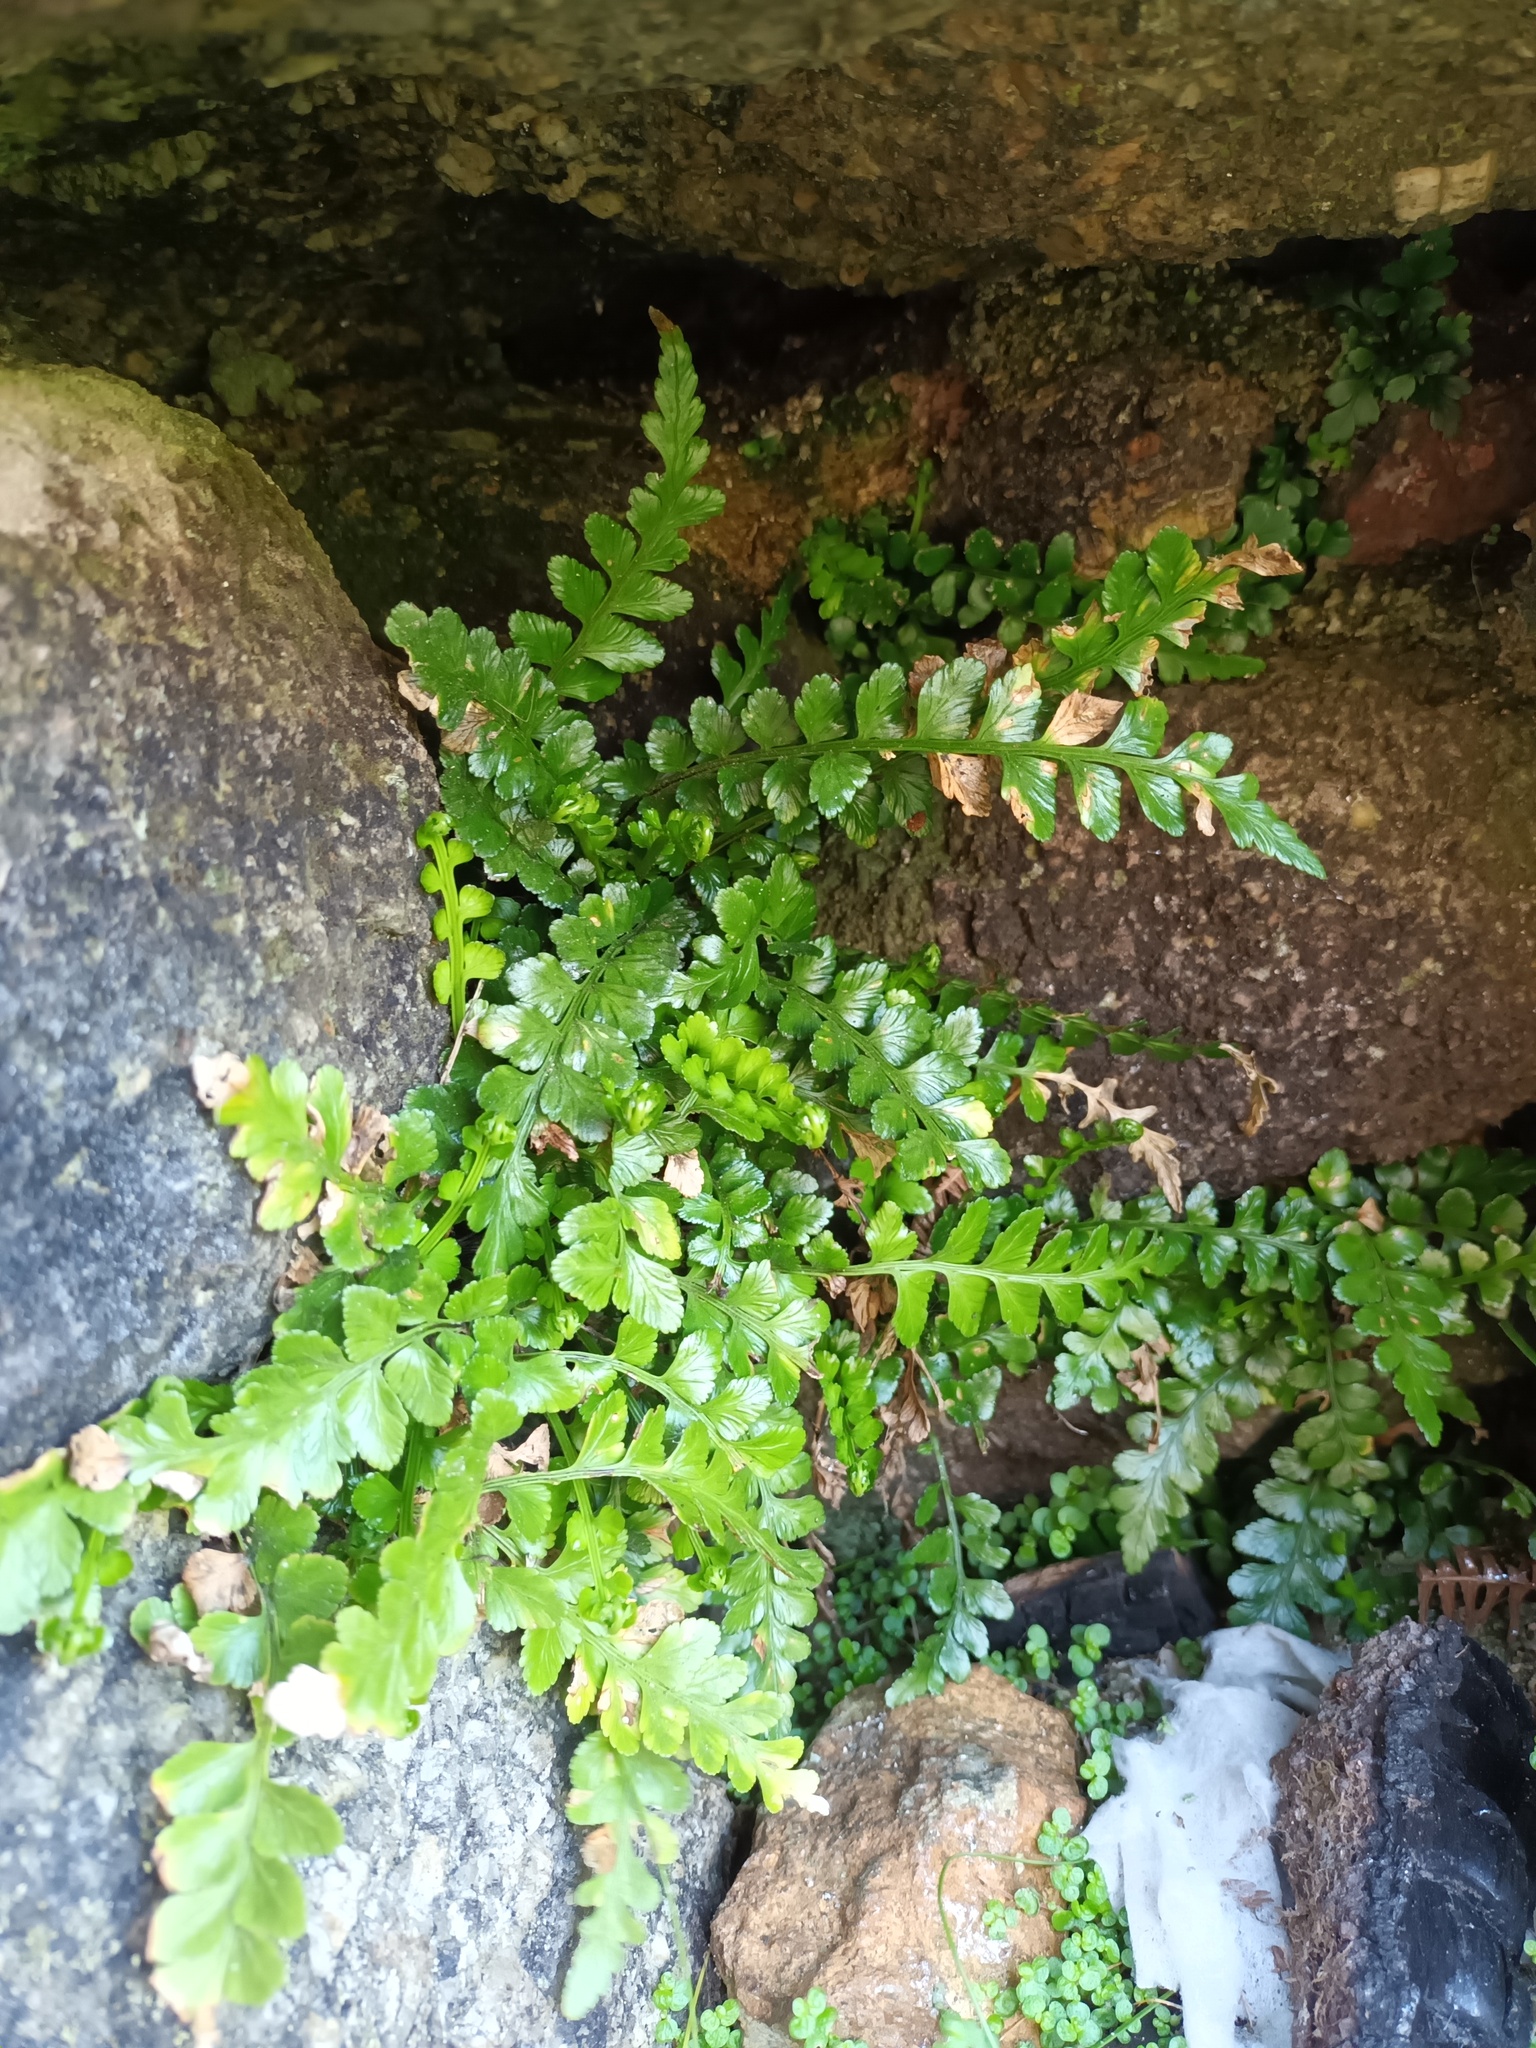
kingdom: Plantae
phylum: Tracheophyta
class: Polypodiopsida
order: Polypodiales
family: Aspleniaceae
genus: Asplenium
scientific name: Asplenium marinum
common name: Sea spleenwort
